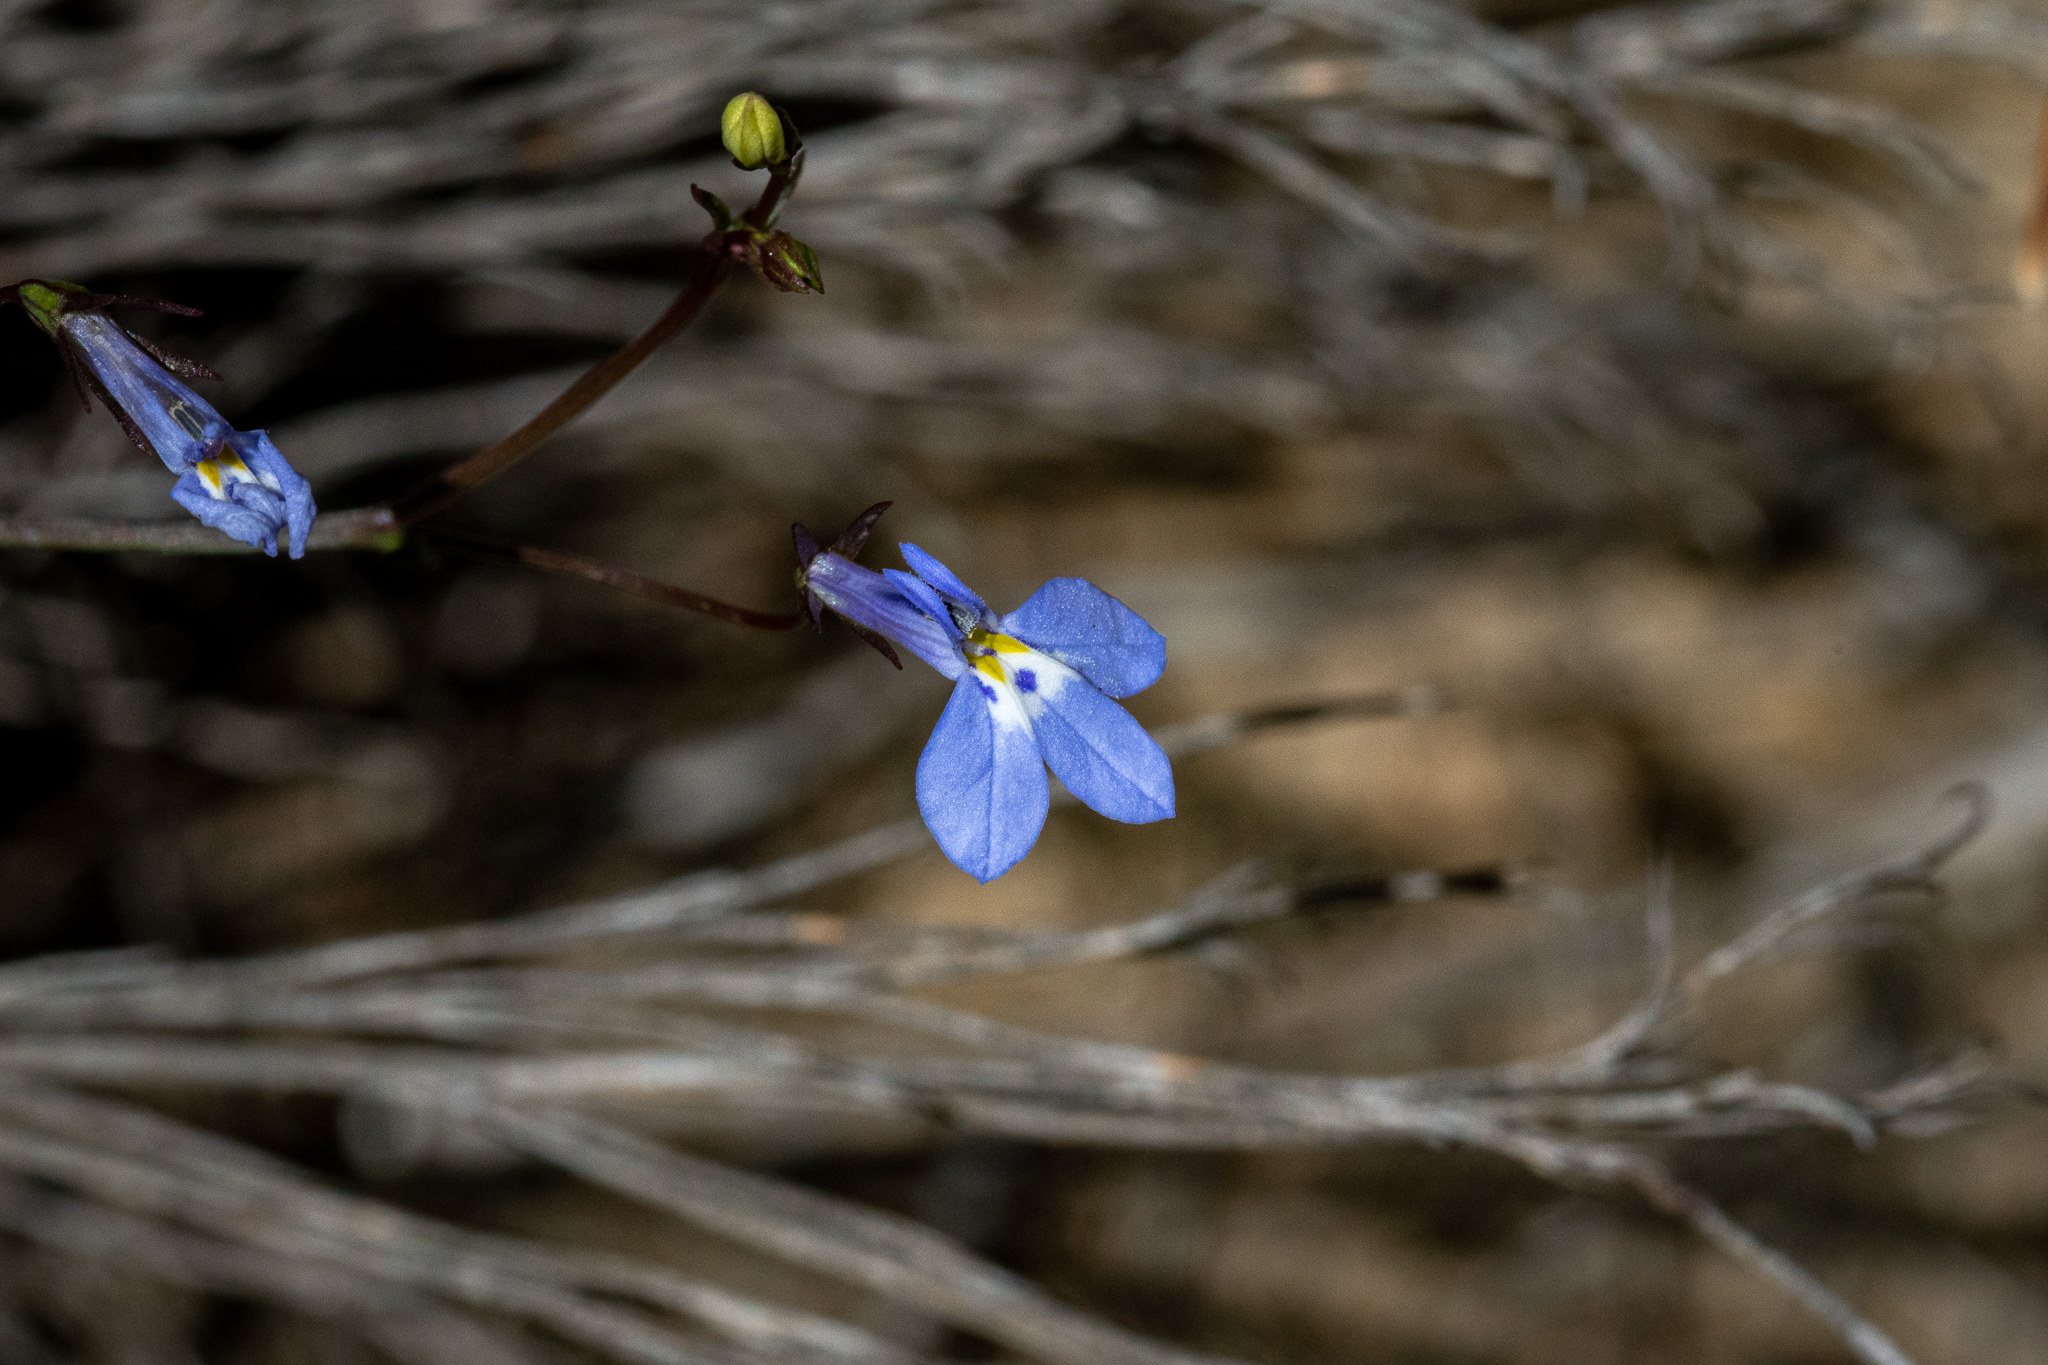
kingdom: Plantae
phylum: Tracheophyta
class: Magnoliopsida
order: Asterales
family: Campanulaceae
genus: Lobelia
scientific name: Lobelia erinus
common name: Edging lobelia
